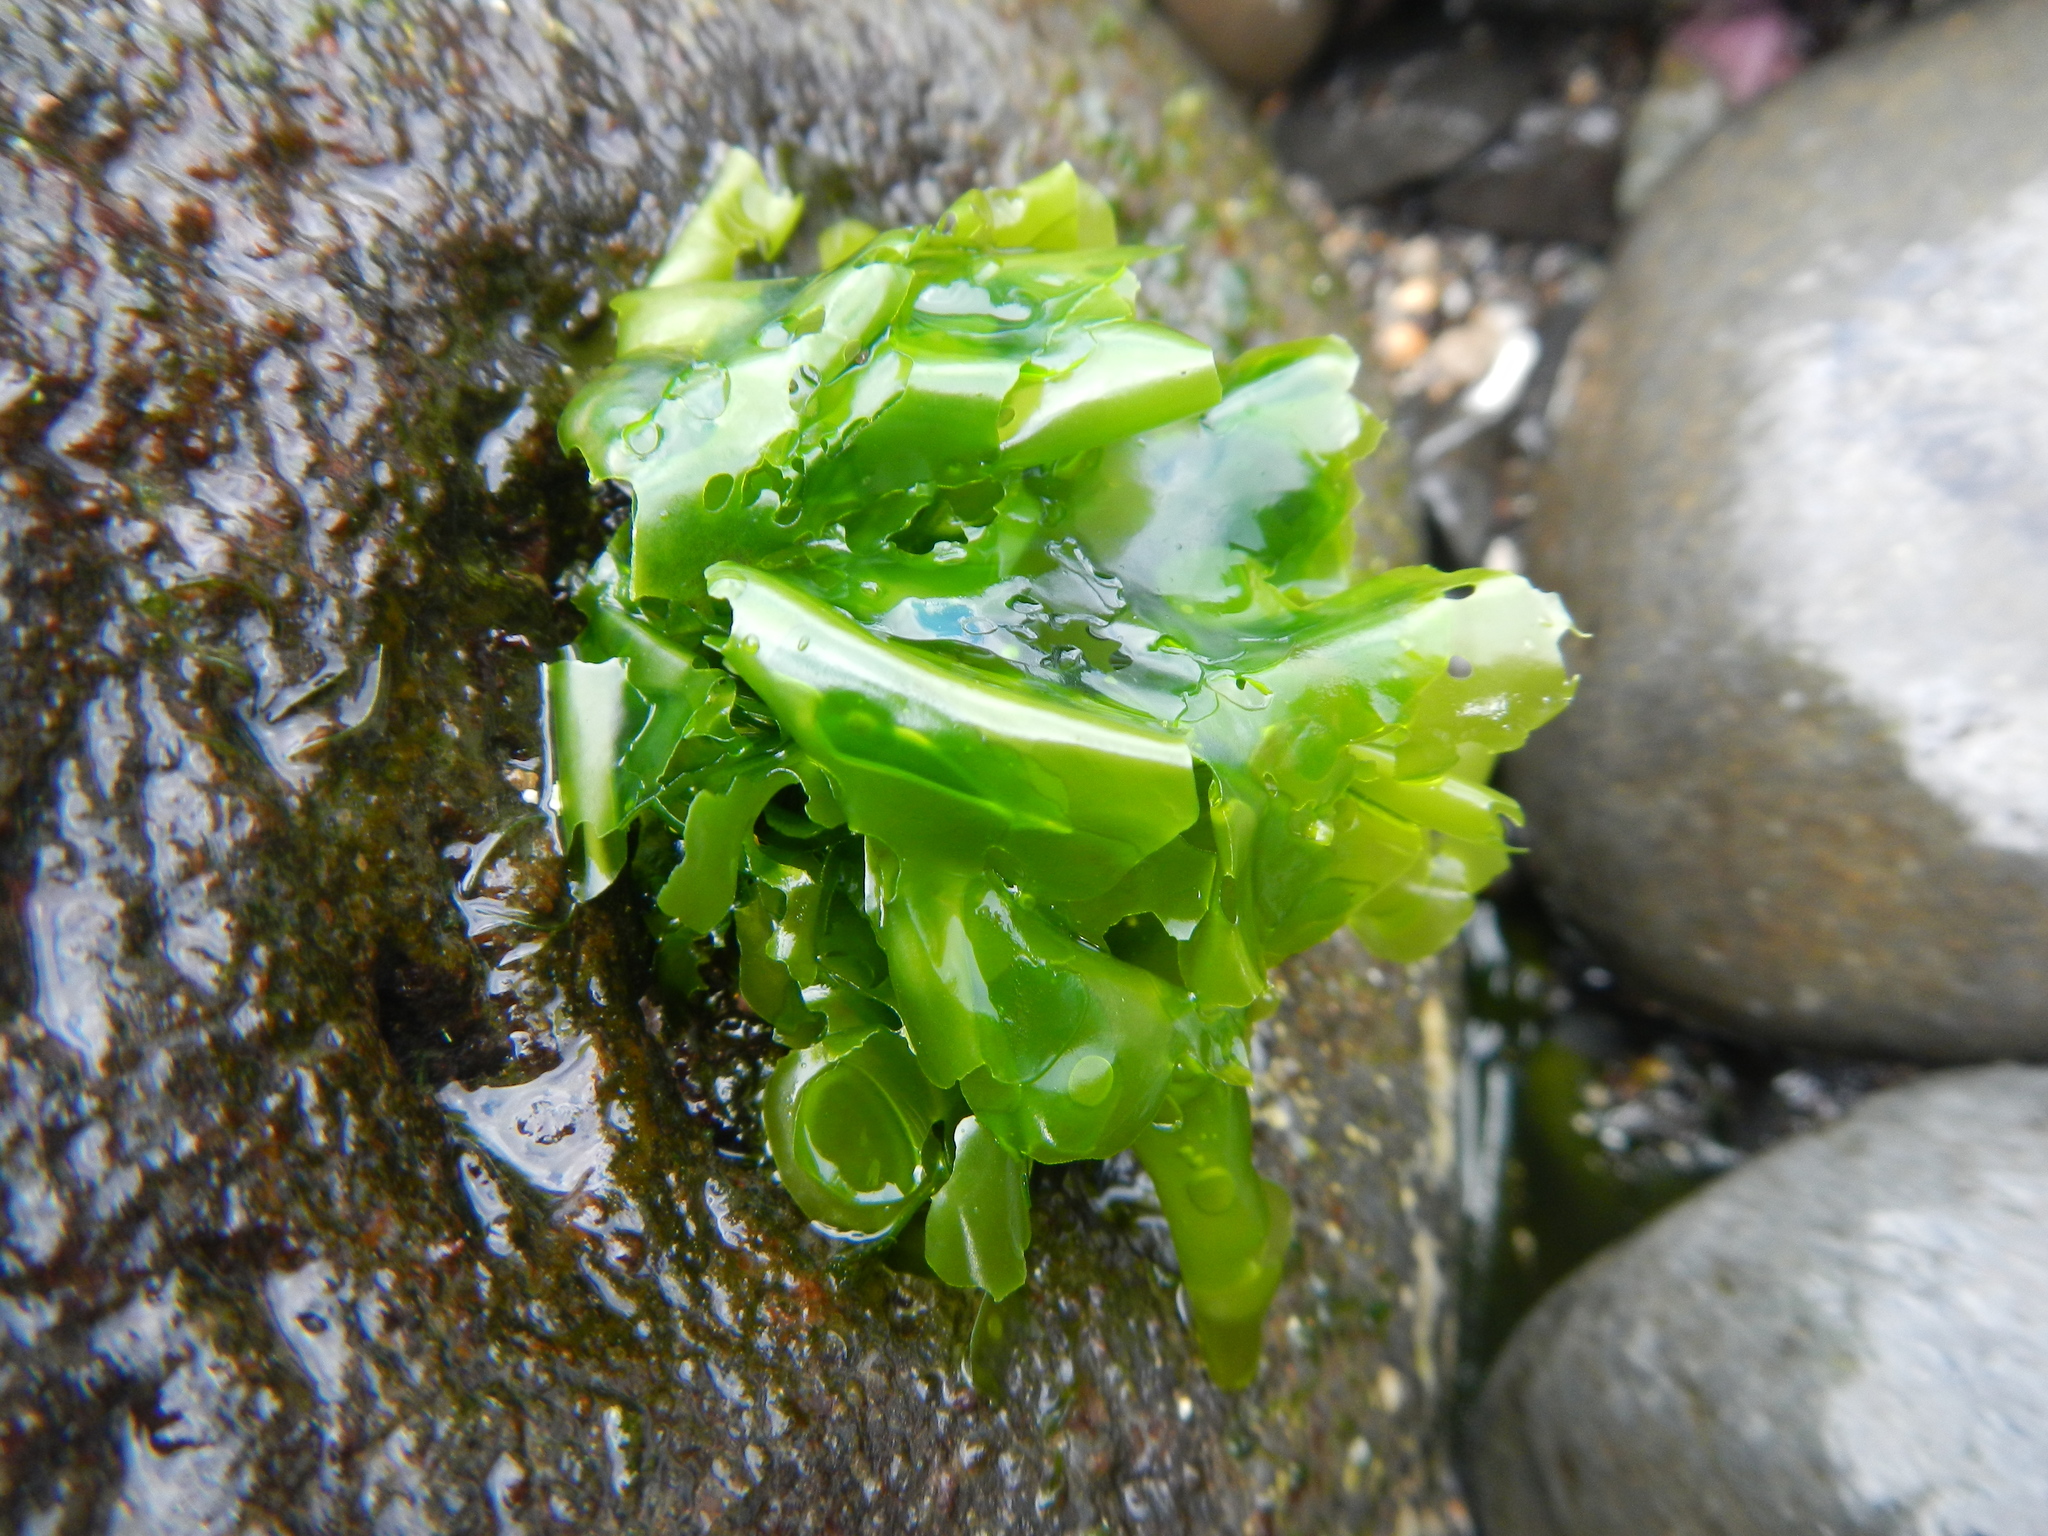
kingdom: Plantae
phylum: Chlorophyta
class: Ulvophyceae
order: Ulvales
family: Ulvaceae
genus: Ulva
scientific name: Ulva
